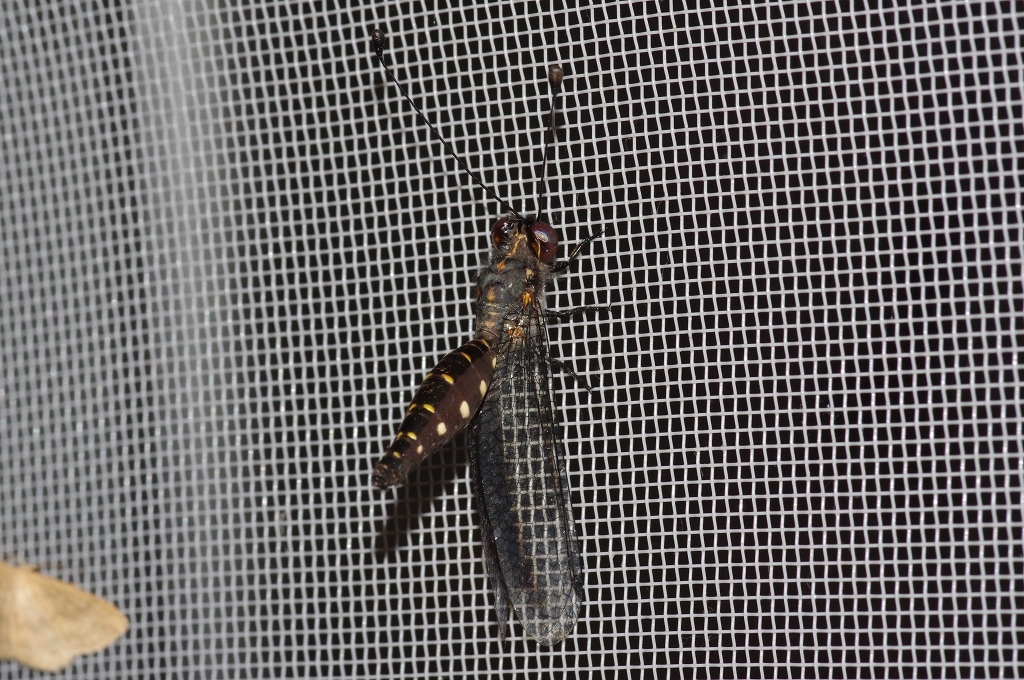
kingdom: Animalia
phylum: Arthropoda
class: Insecta
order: Neuroptera
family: Ascalaphidae
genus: Suphalomitus
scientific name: Suphalomitus okinavensis
